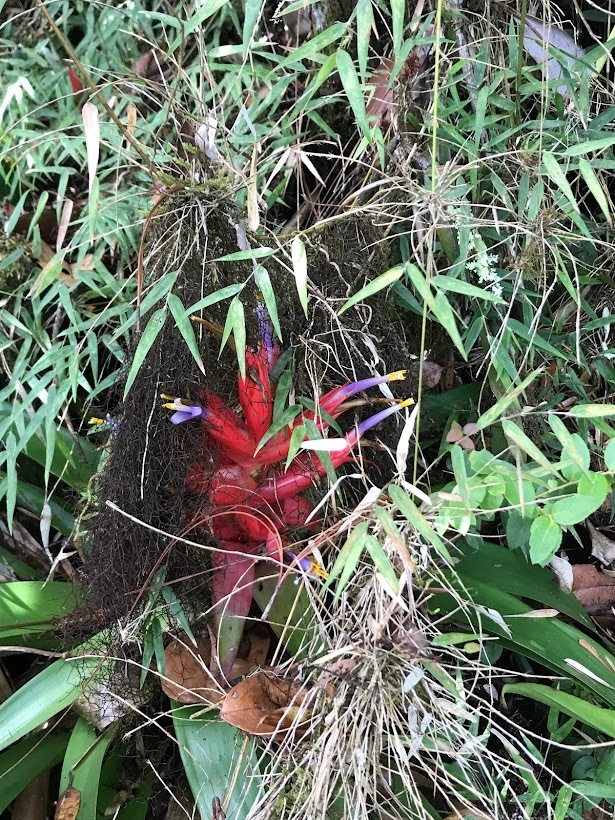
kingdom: Plantae
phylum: Tracheophyta
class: Liliopsida
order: Poales
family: Bromeliaceae
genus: Tillandsia
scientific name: Tillandsia deflexa
